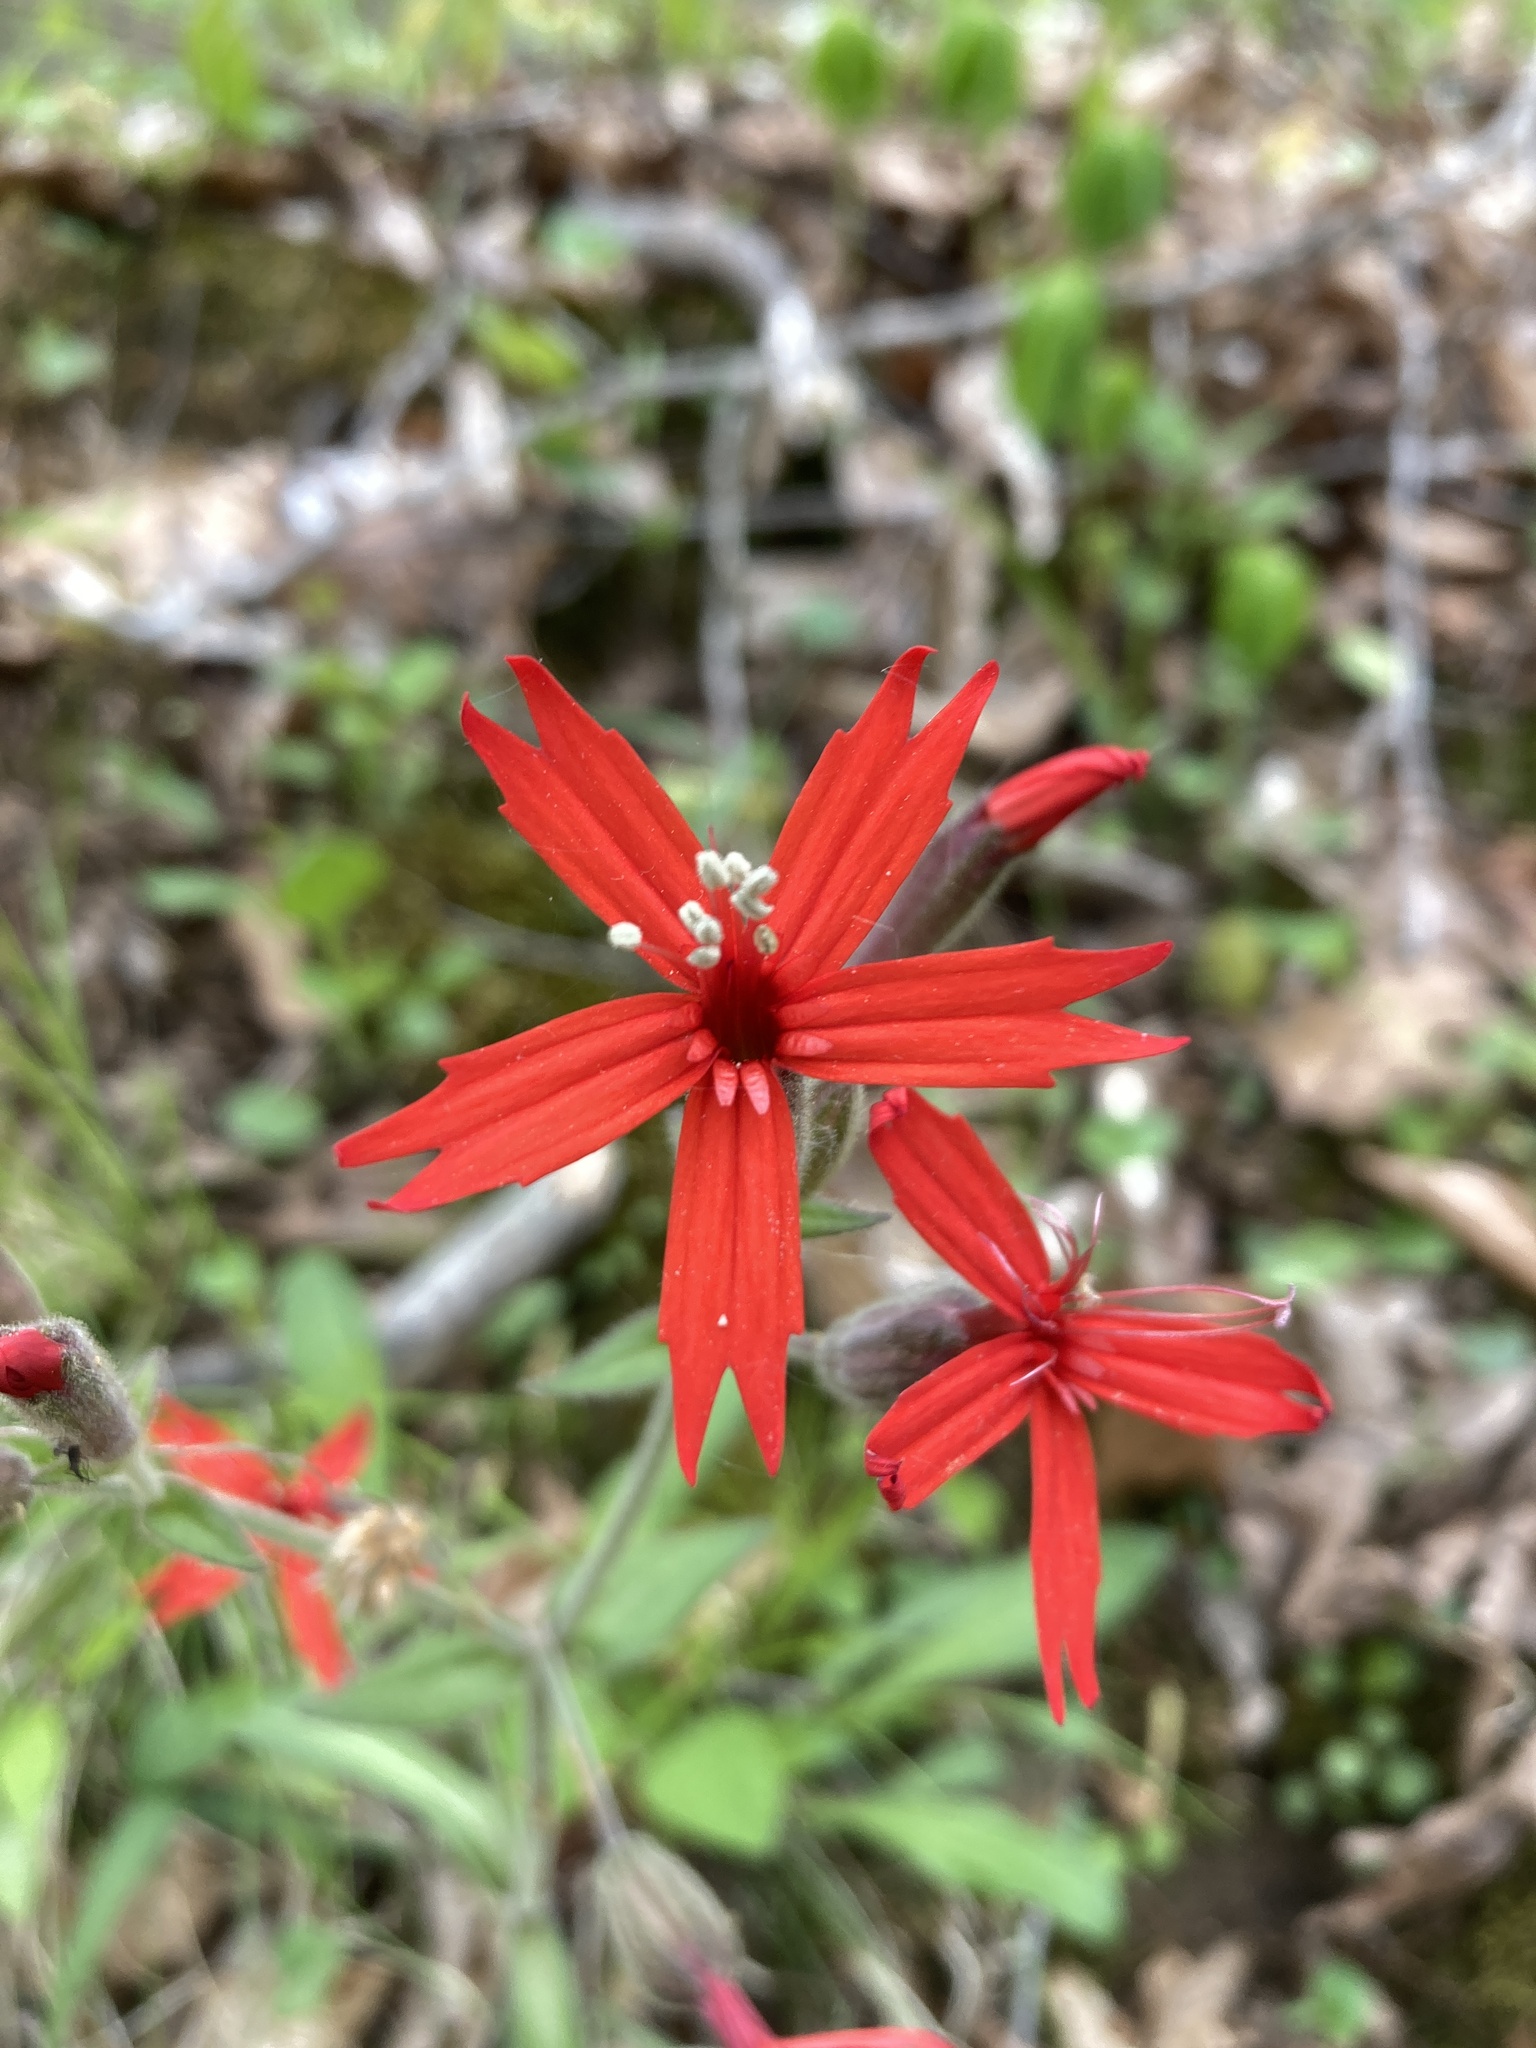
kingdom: Plantae
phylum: Tracheophyta
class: Magnoliopsida
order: Caryophyllales
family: Caryophyllaceae
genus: Silene
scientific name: Silene virginica
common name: Fire-pink
